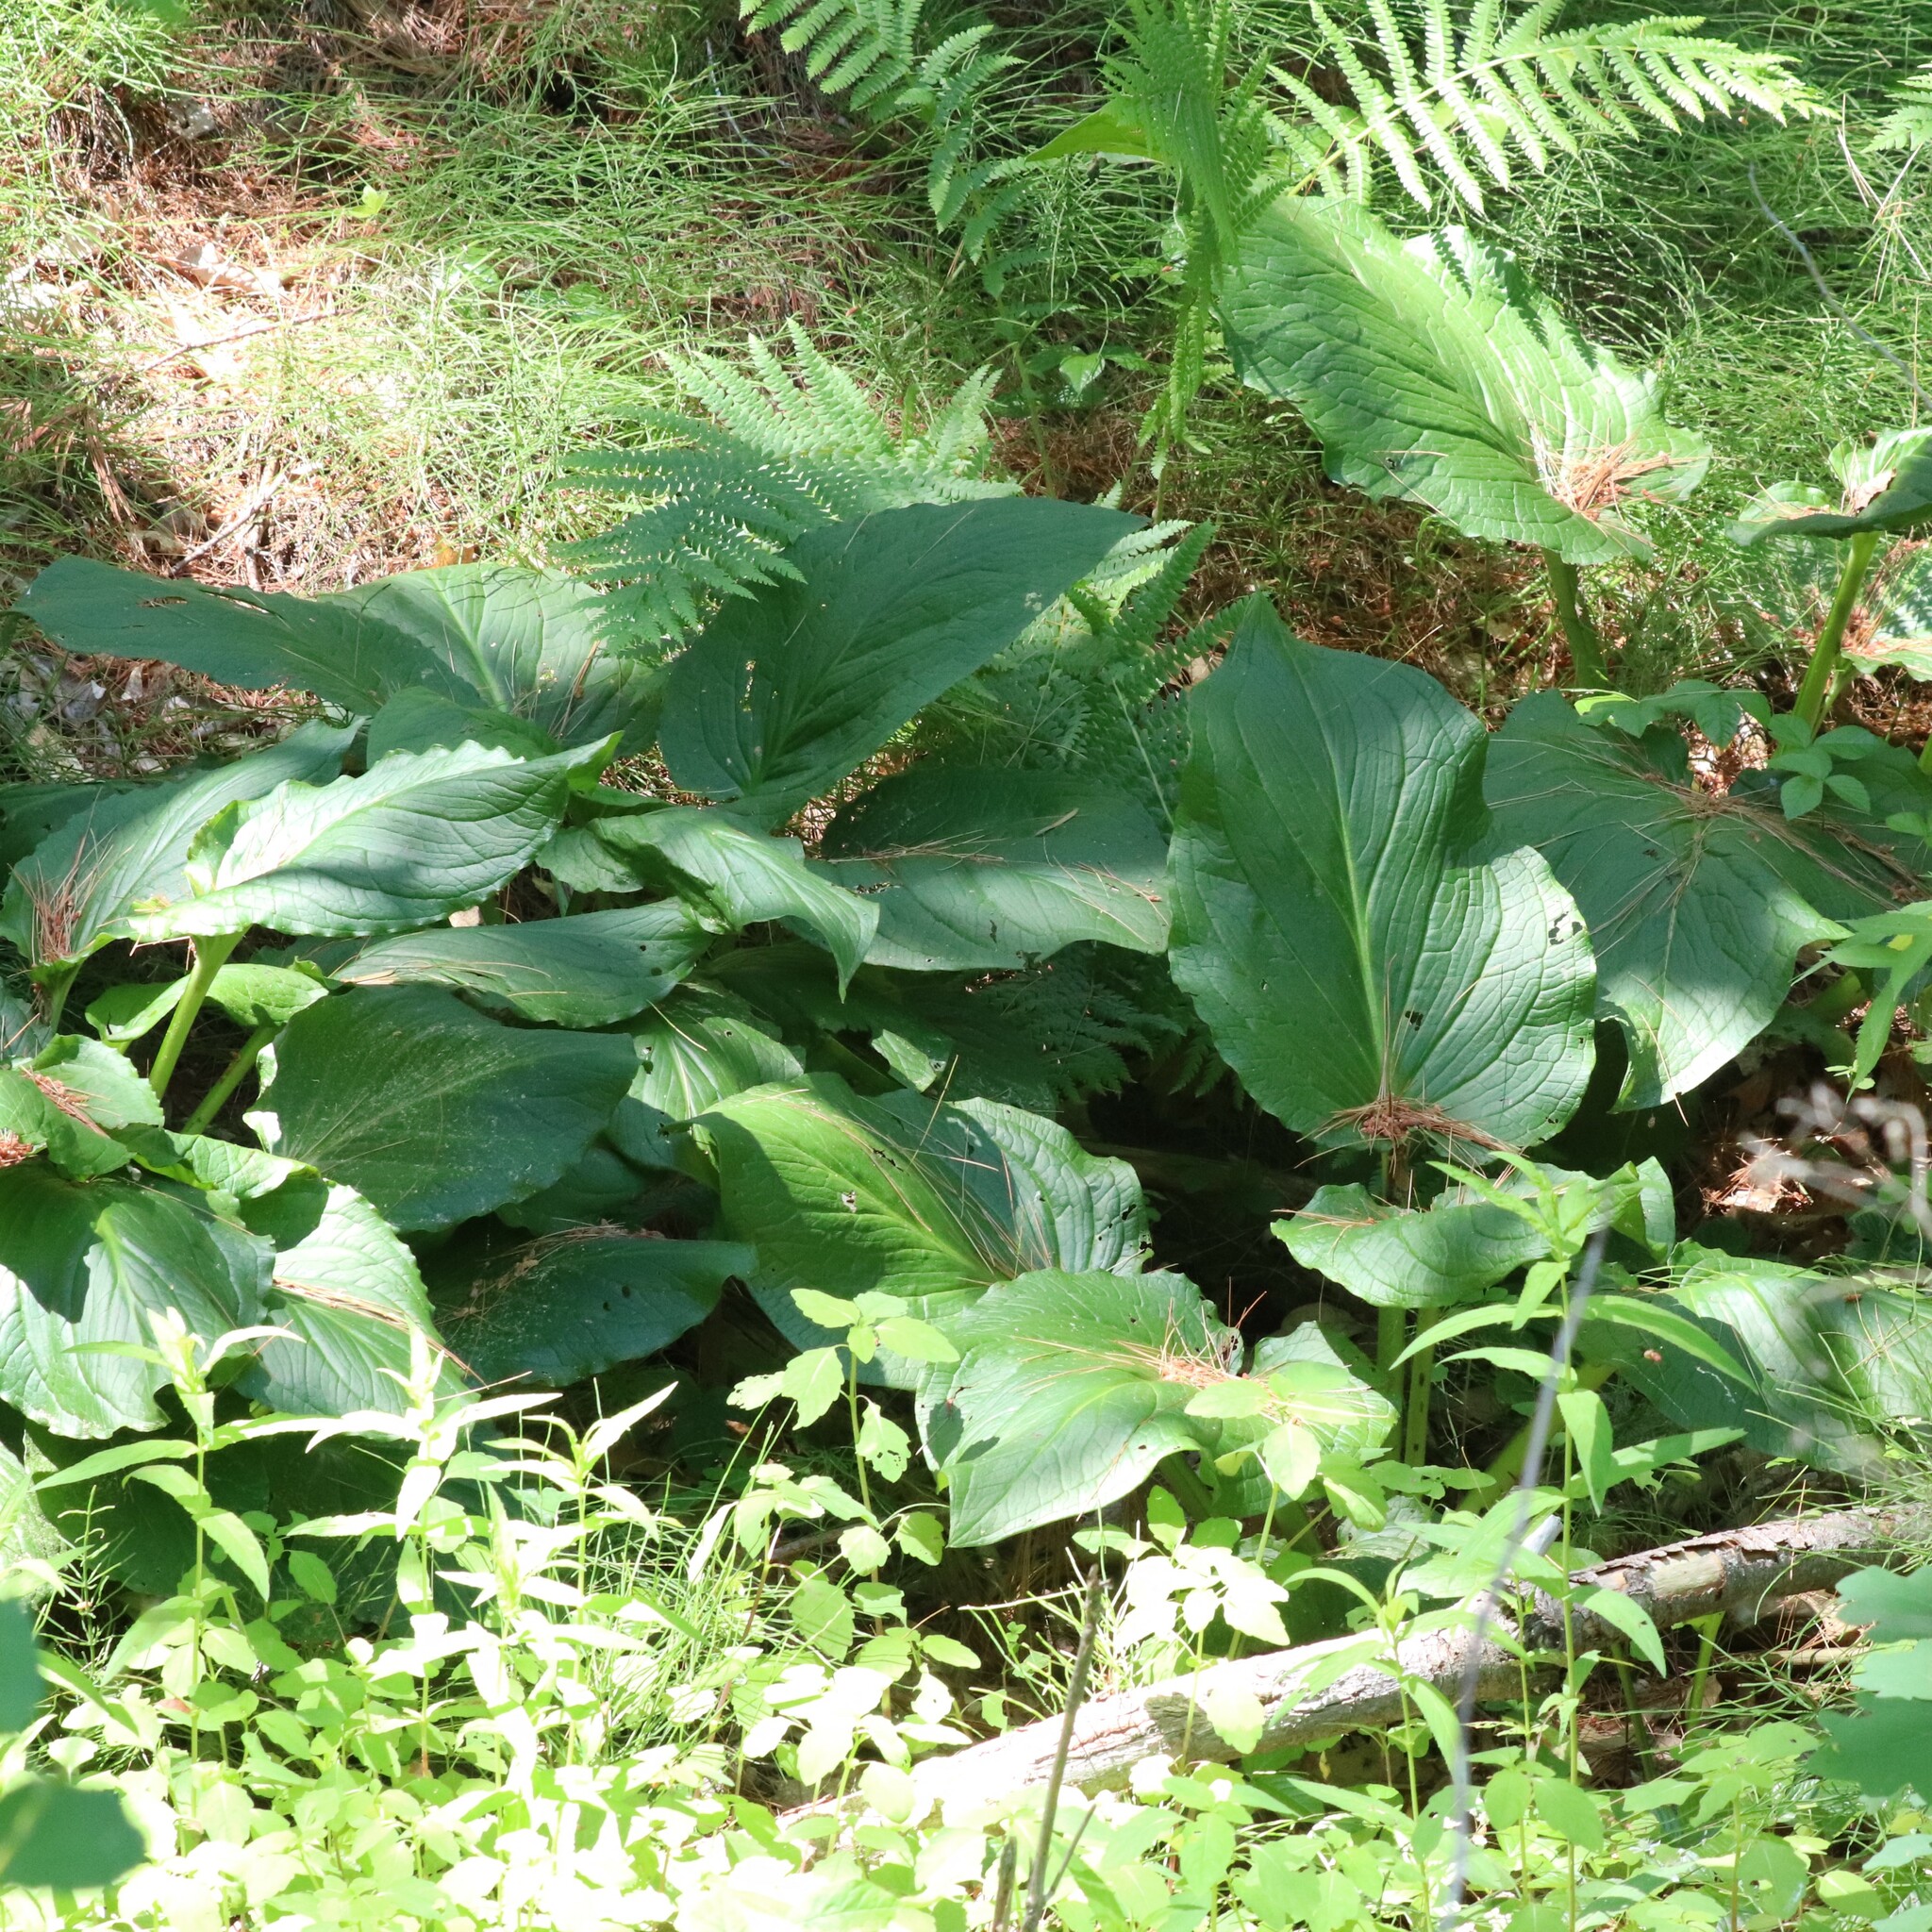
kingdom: Plantae
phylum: Tracheophyta
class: Liliopsida
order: Alismatales
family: Araceae
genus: Symplocarpus
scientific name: Symplocarpus foetidus
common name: Eastern skunk cabbage
